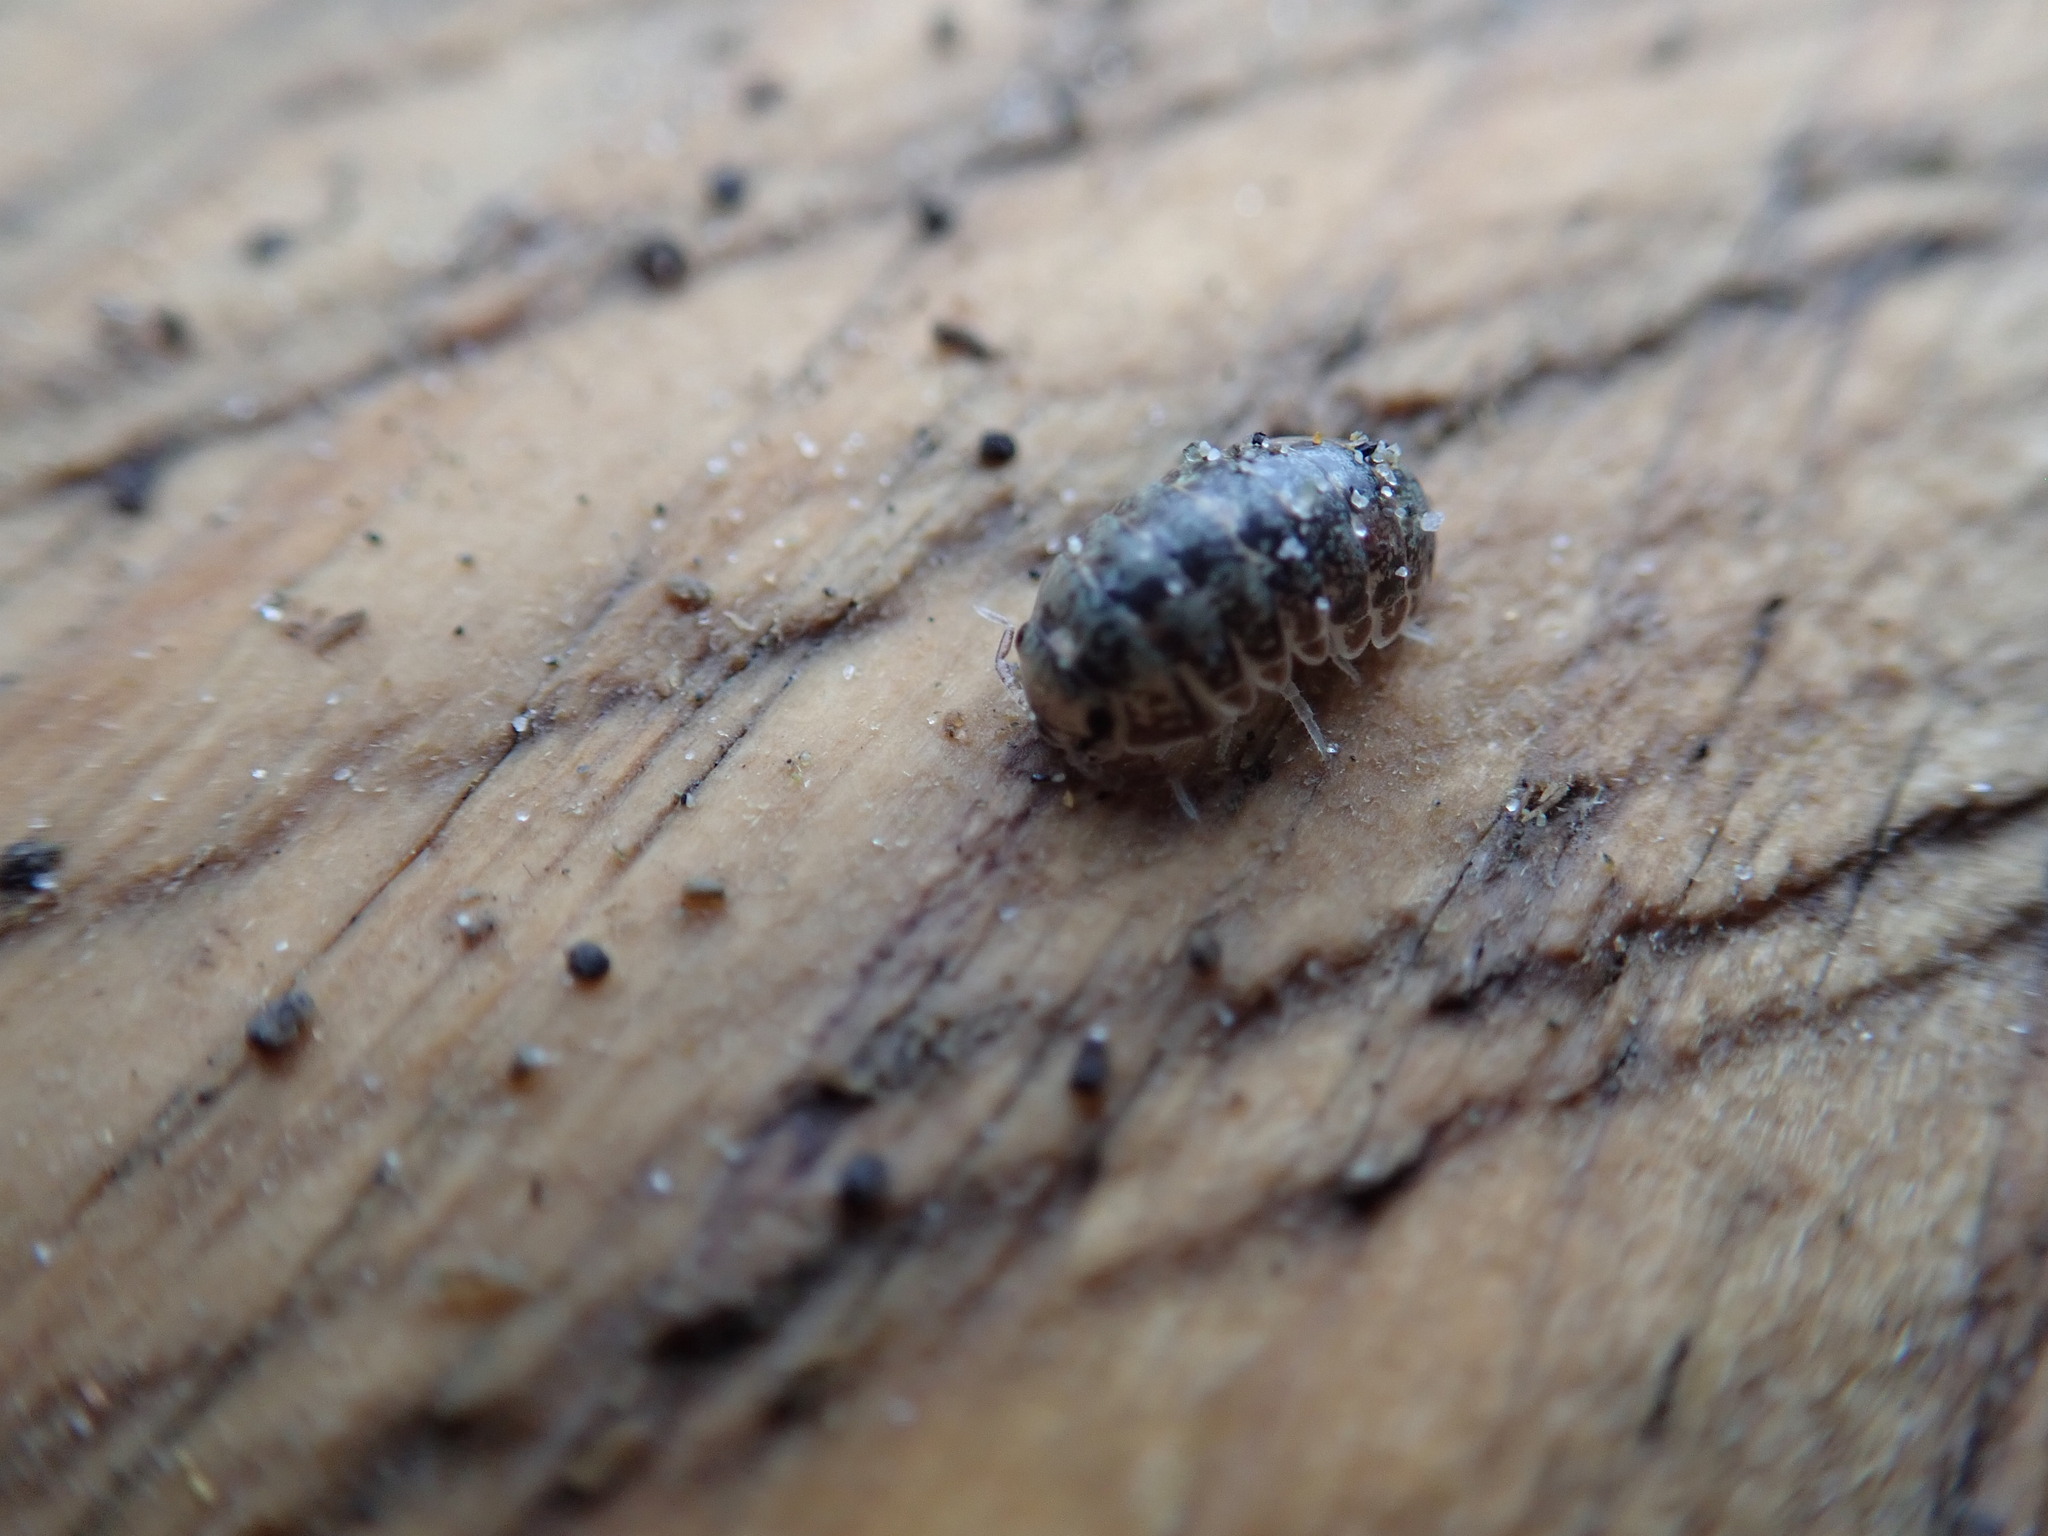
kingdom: Animalia
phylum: Arthropoda
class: Malacostraca
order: Isopoda
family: Tylidae
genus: Tylos
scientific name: Tylos neozelanicus
